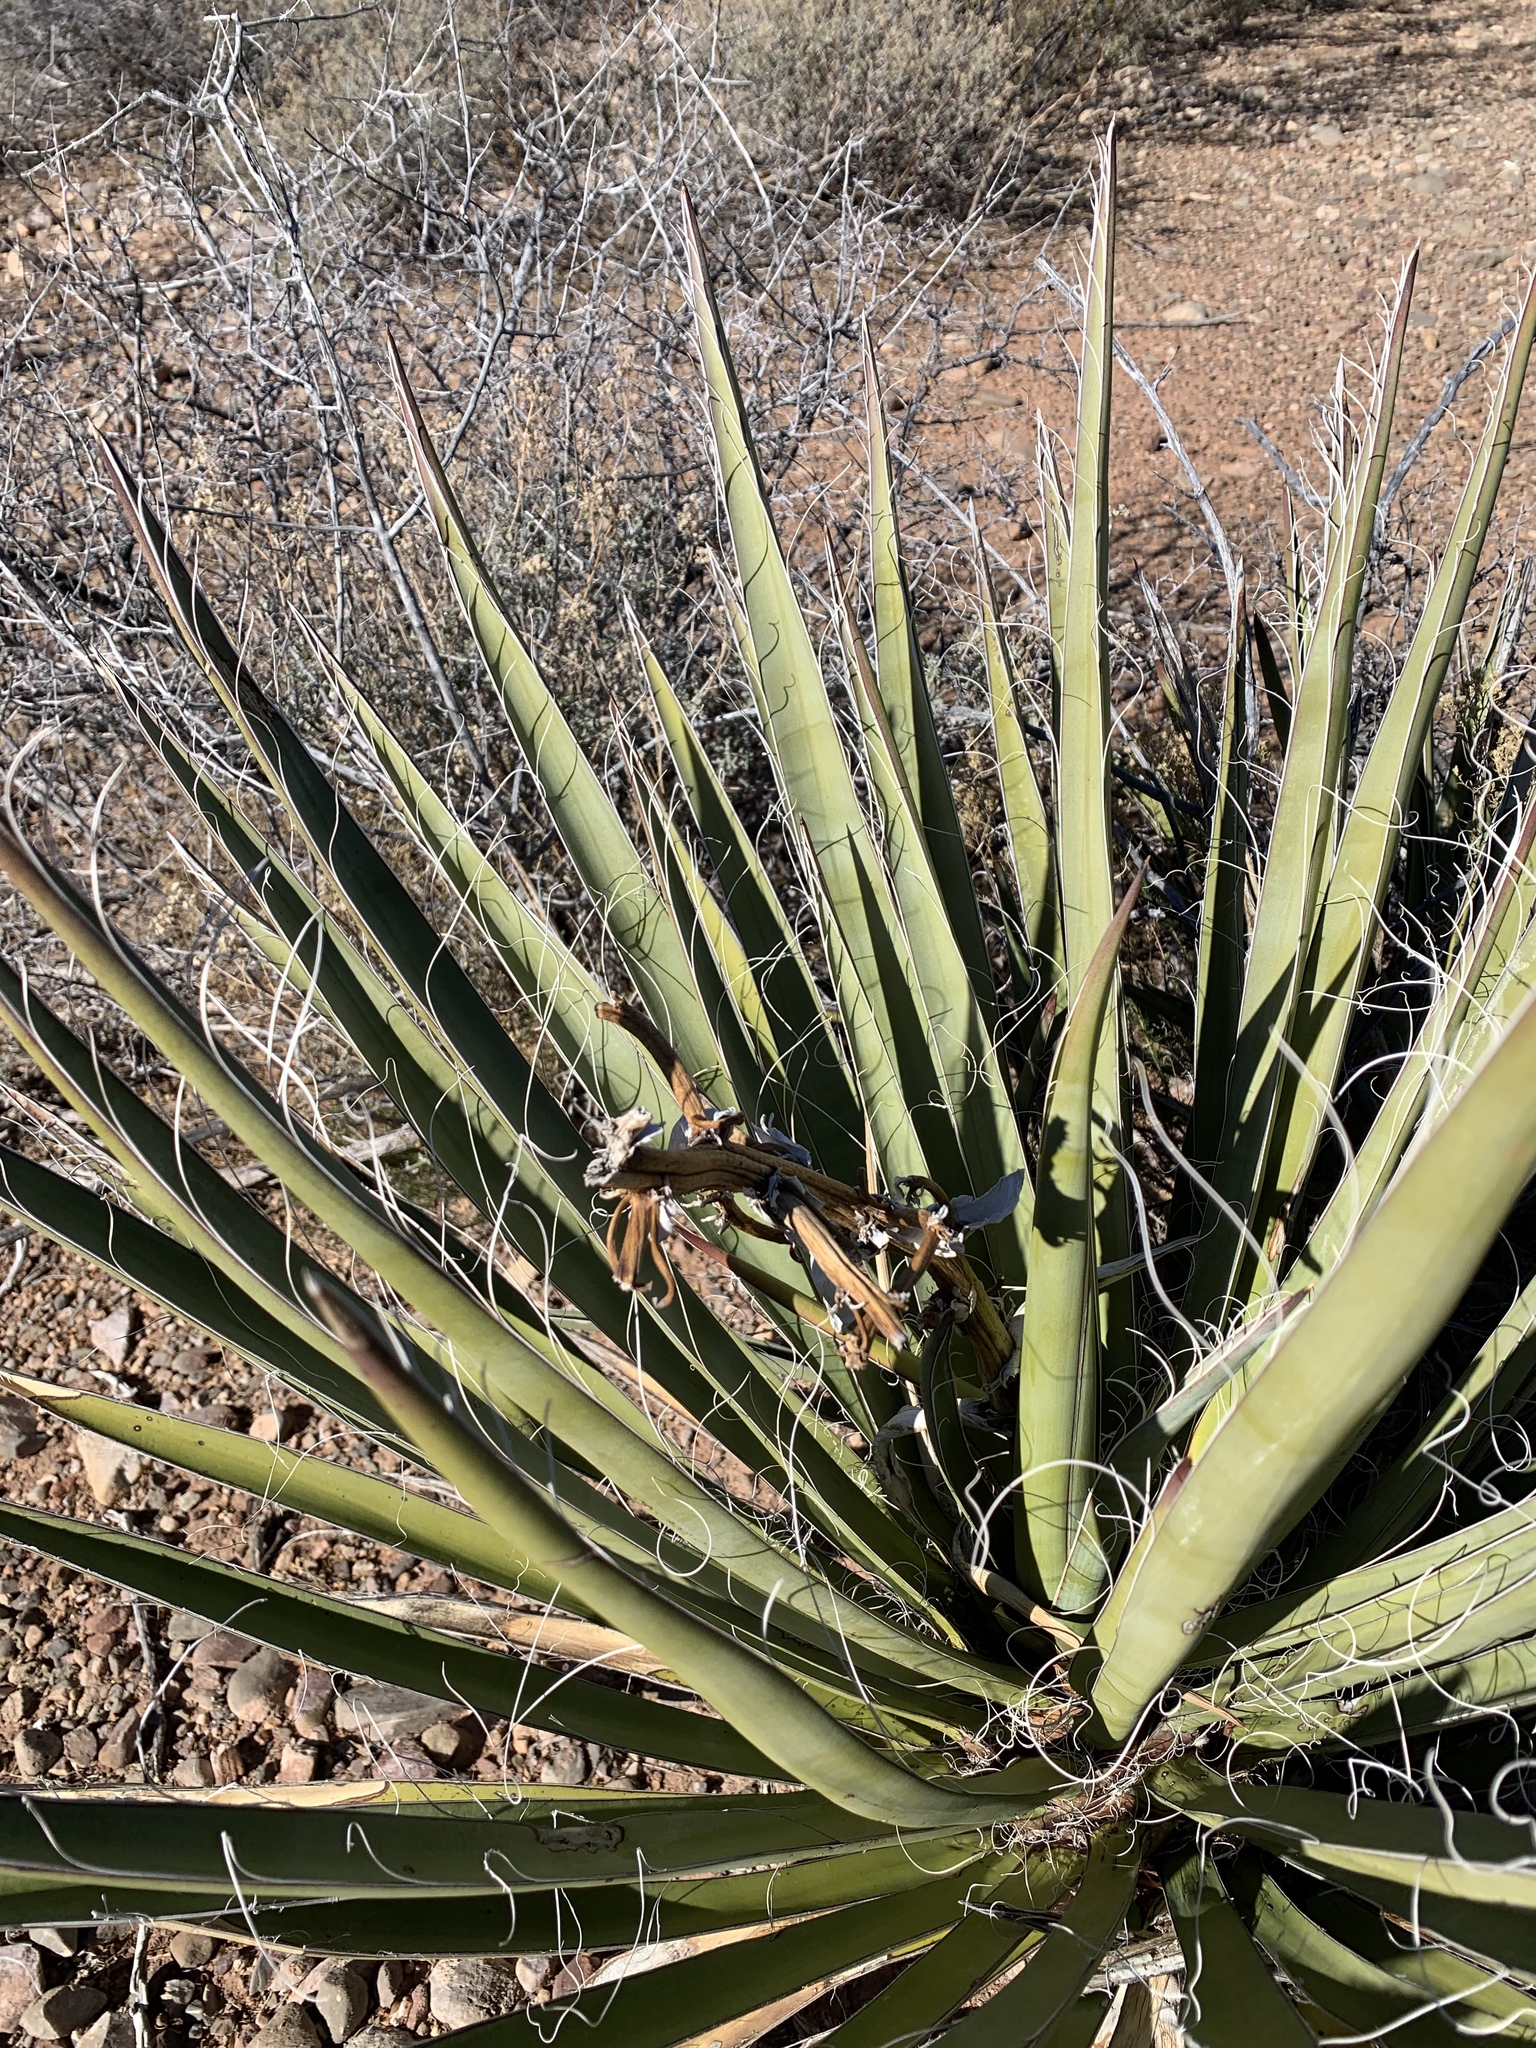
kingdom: Plantae
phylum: Tracheophyta
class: Liliopsida
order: Asparagales
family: Asparagaceae
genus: Yucca
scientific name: Yucca baccata
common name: Banana yucca
